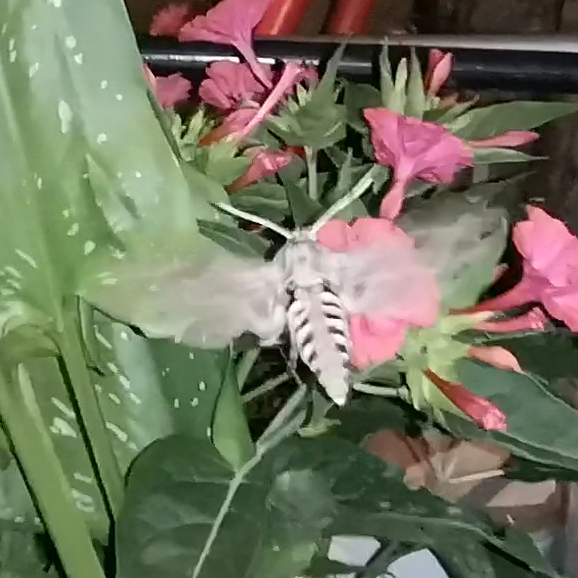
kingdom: Animalia
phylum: Arthropoda
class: Insecta
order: Lepidoptera
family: Sphingidae
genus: Agrius
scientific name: Agrius convolvuli
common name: Convolvulus hawkmoth
